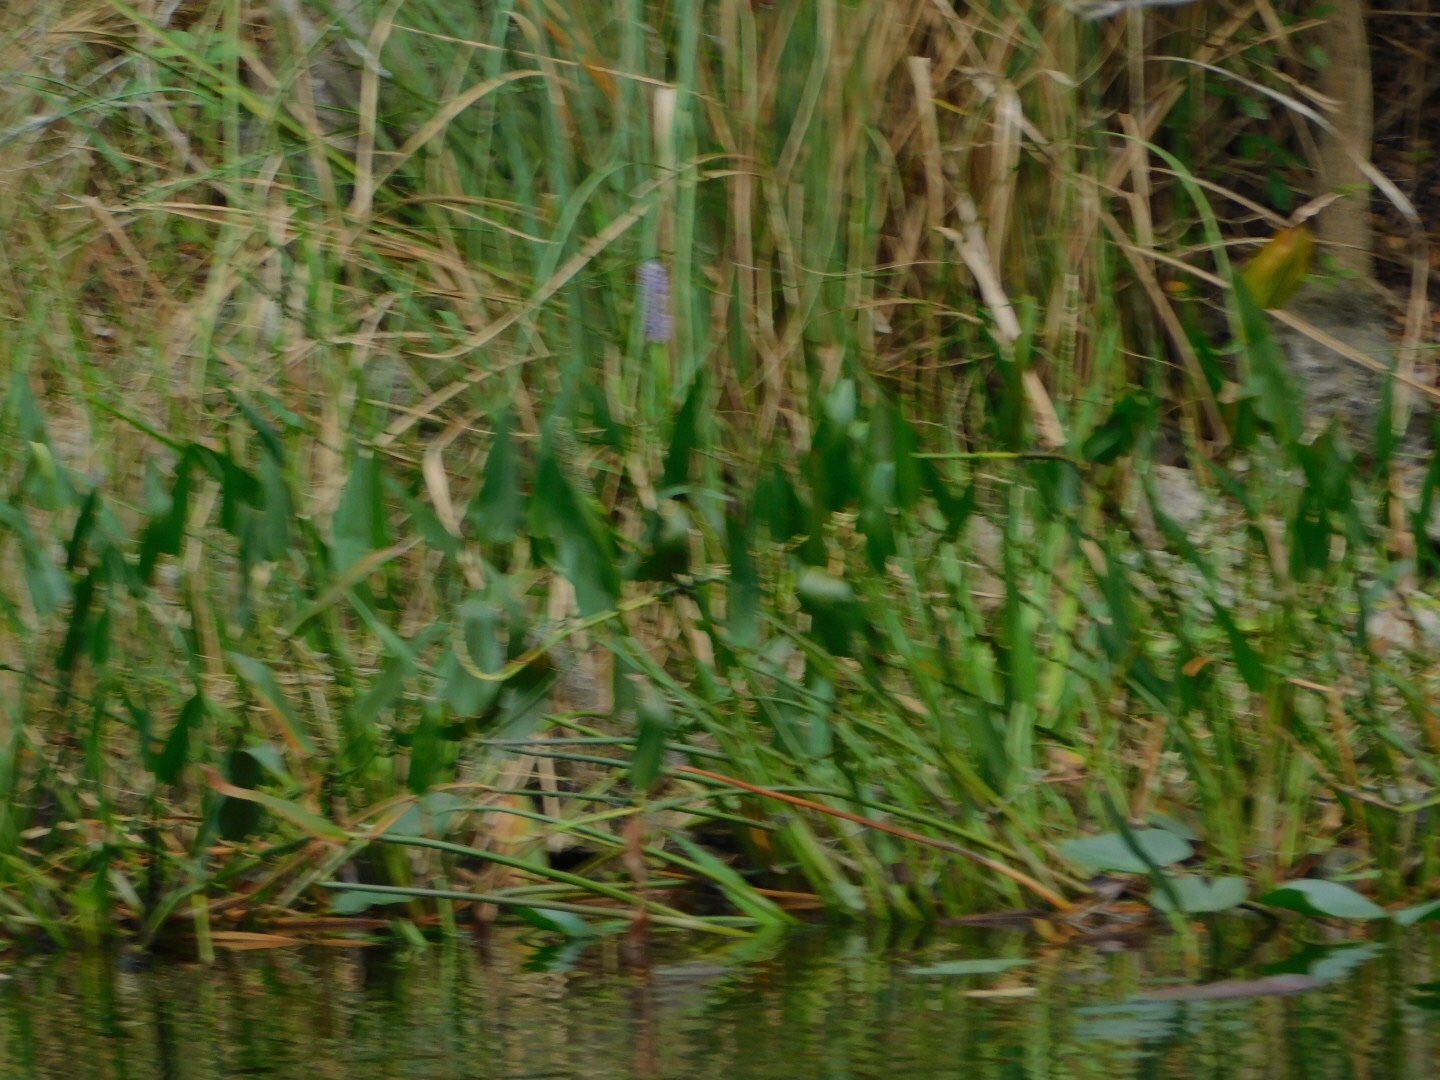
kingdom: Plantae
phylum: Tracheophyta
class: Liliopsida
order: Commelinales
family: Pontederiaceae
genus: Pontederia
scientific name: Pontederia cordata
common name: Pickerelweed
